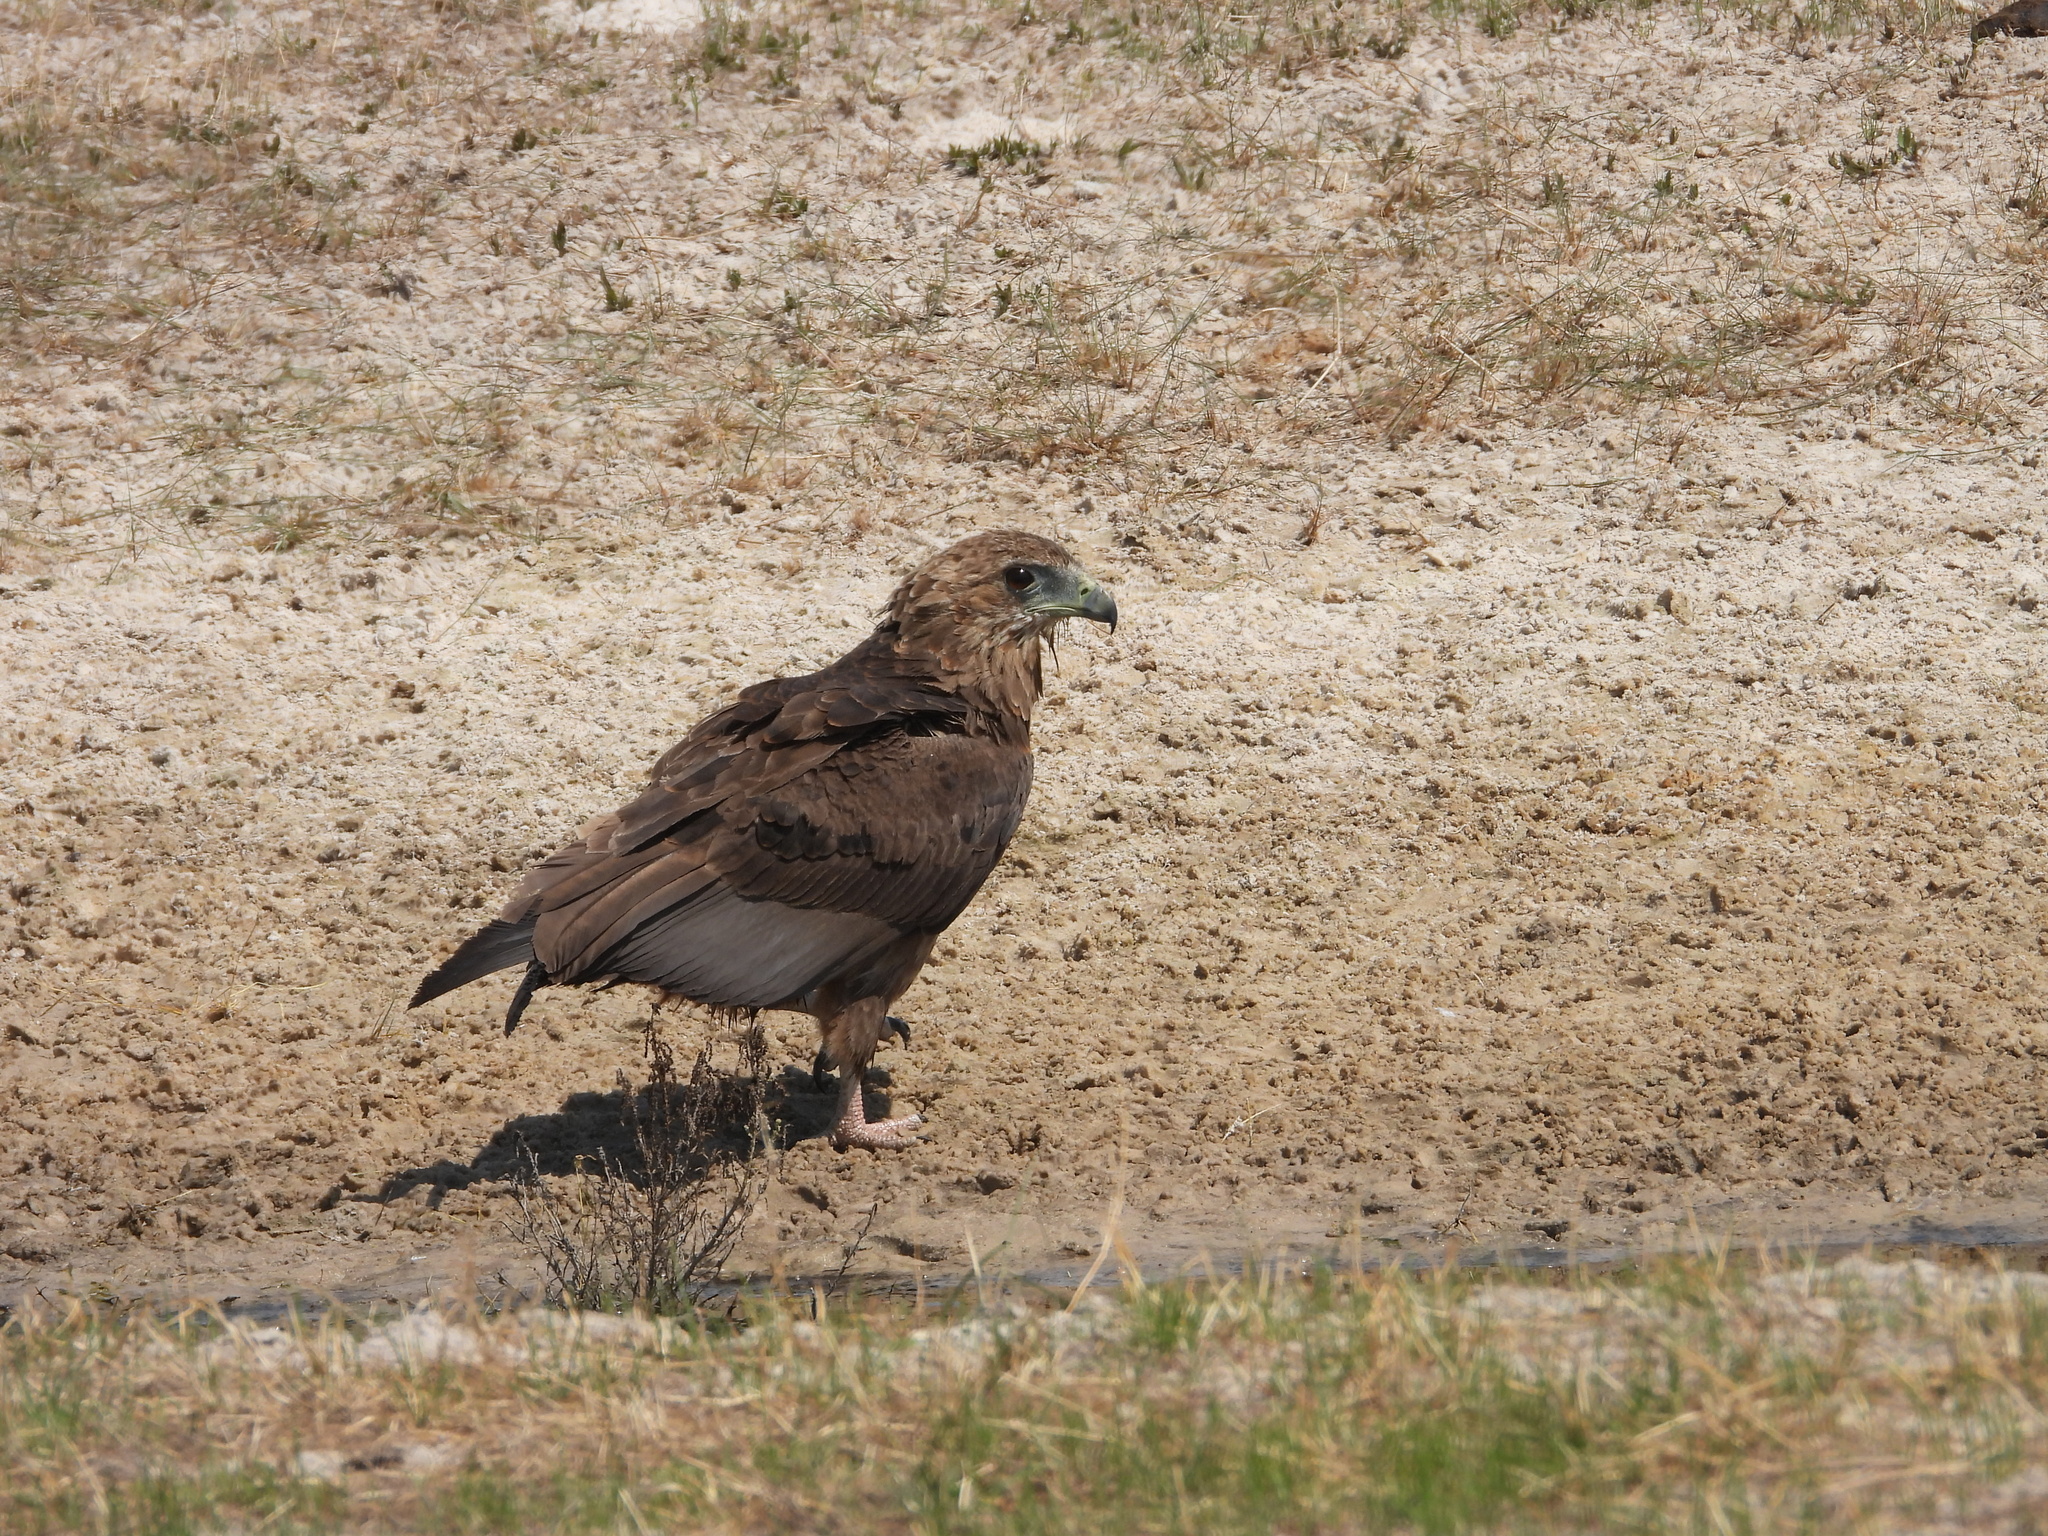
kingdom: Animalia
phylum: Chordata
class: Aves
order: Accipitriformes
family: Accipitridae
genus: Terathopius
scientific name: Terathopius ecaudatus
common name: Bateleur
